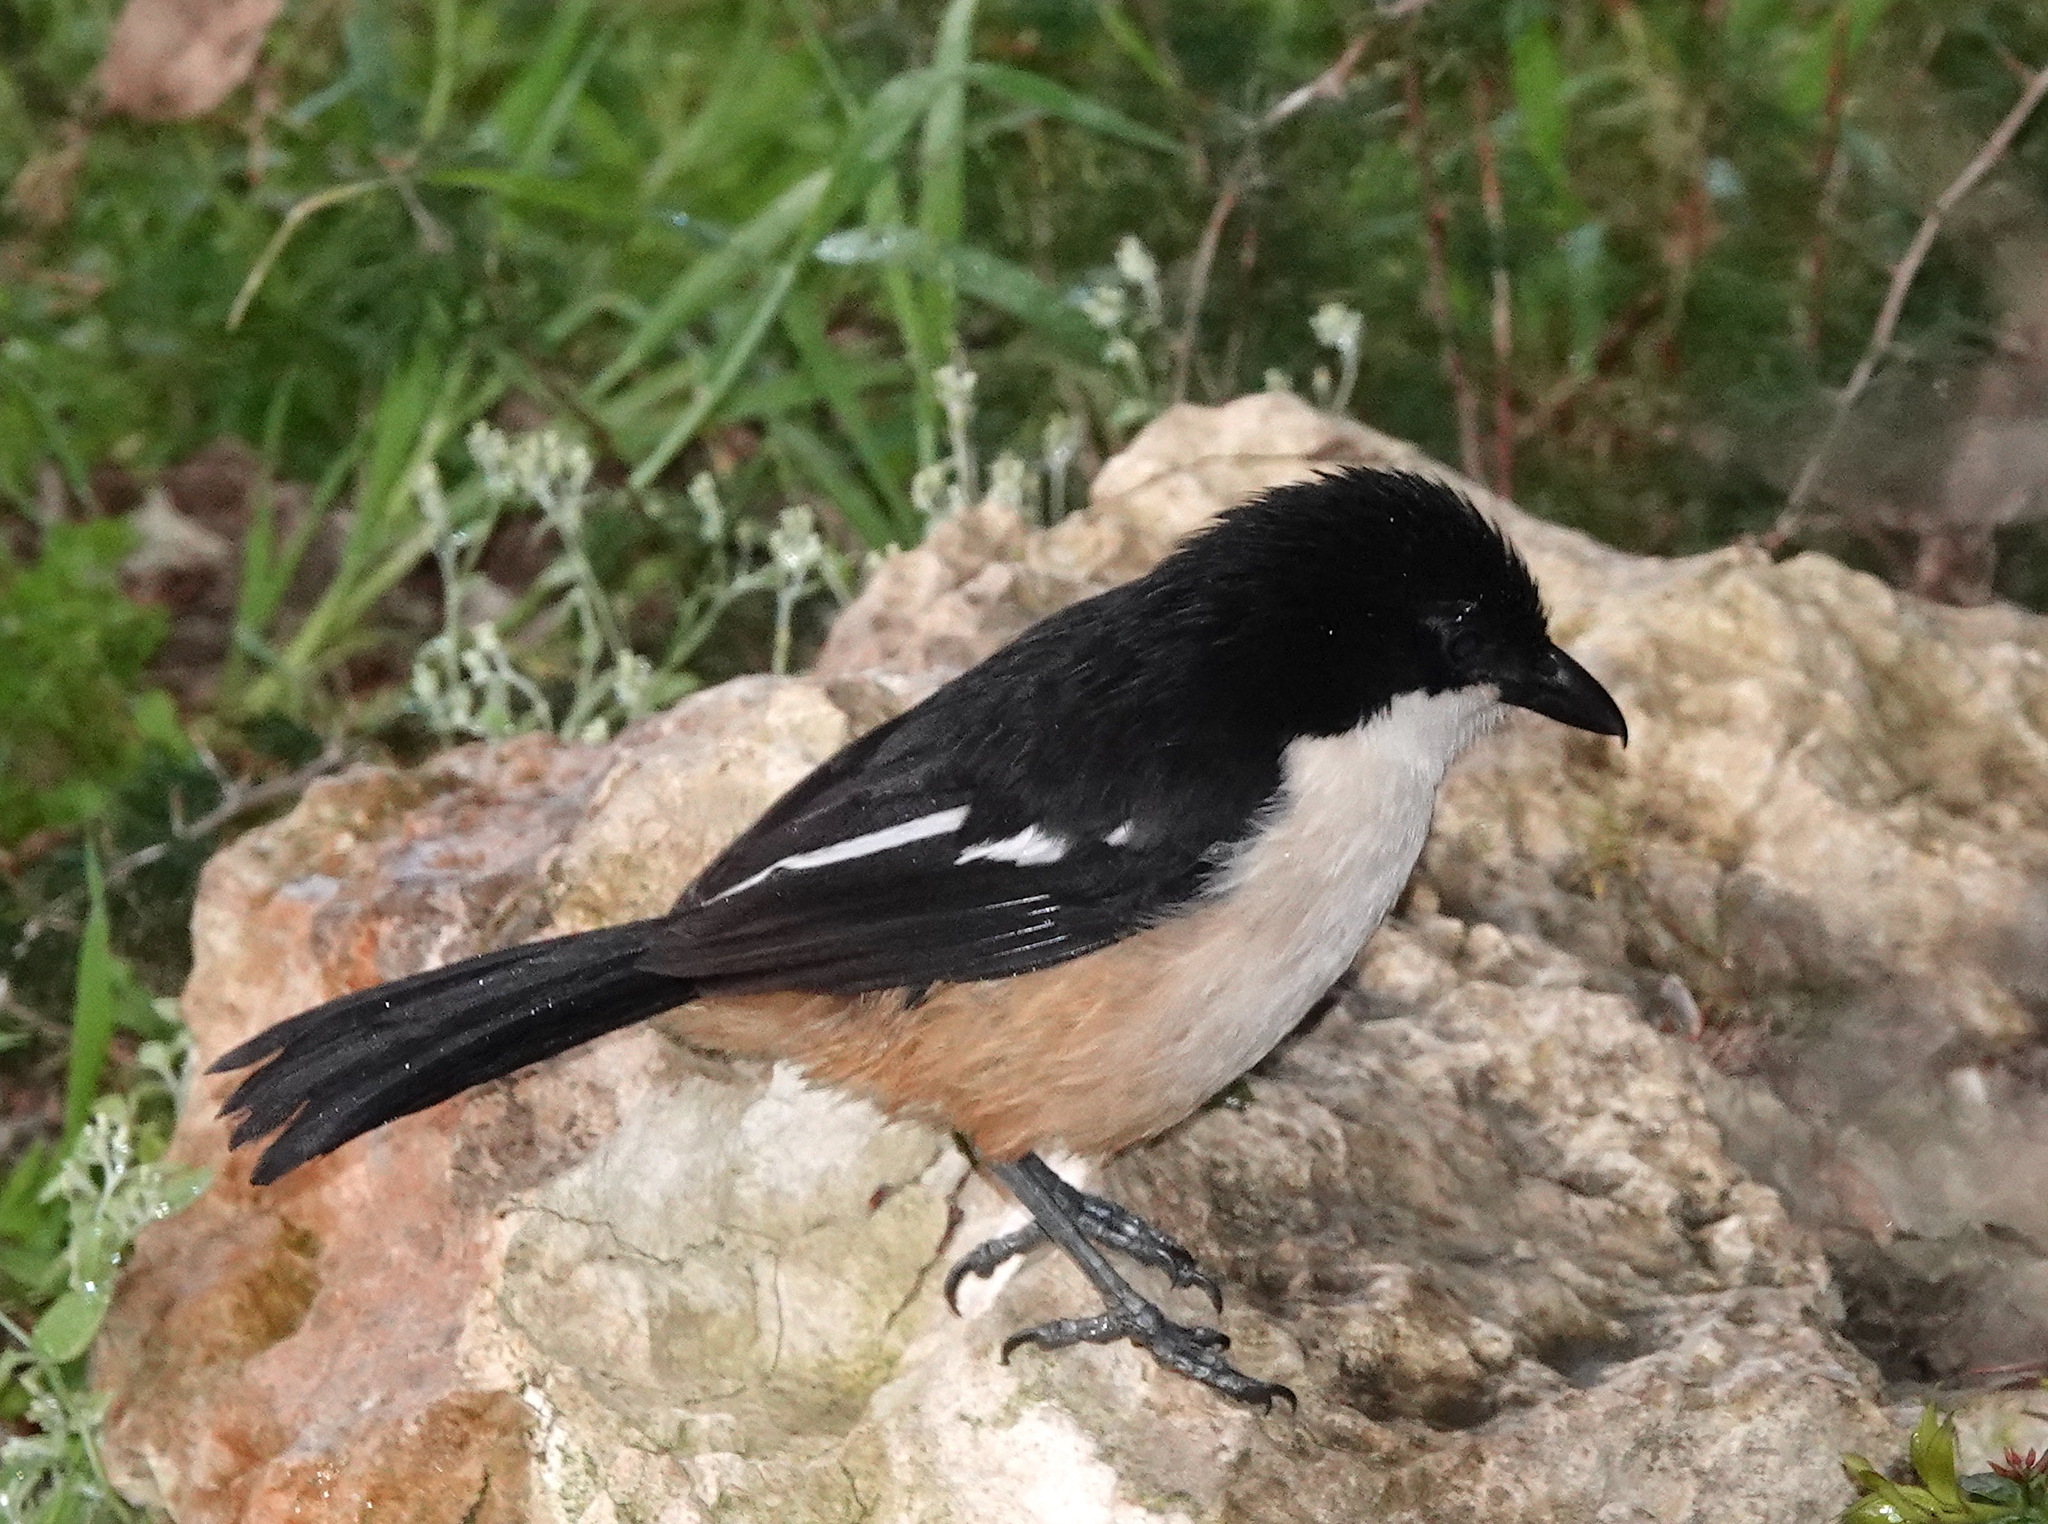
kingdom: Animalia
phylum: Chordata
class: Aves
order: Passeriformes
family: Malaconotidae
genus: Laniarius
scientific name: Laniarius ferrugineus
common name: Southern boubou
